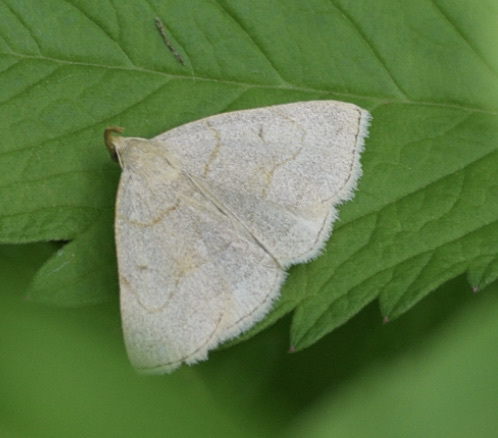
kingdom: Animalia
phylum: Arthropoda
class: Insecta
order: Lepidoptera
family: Erebidae
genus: Zanclognatha
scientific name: Zanclognatha pedipilalis
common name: Grayish fan-foot
